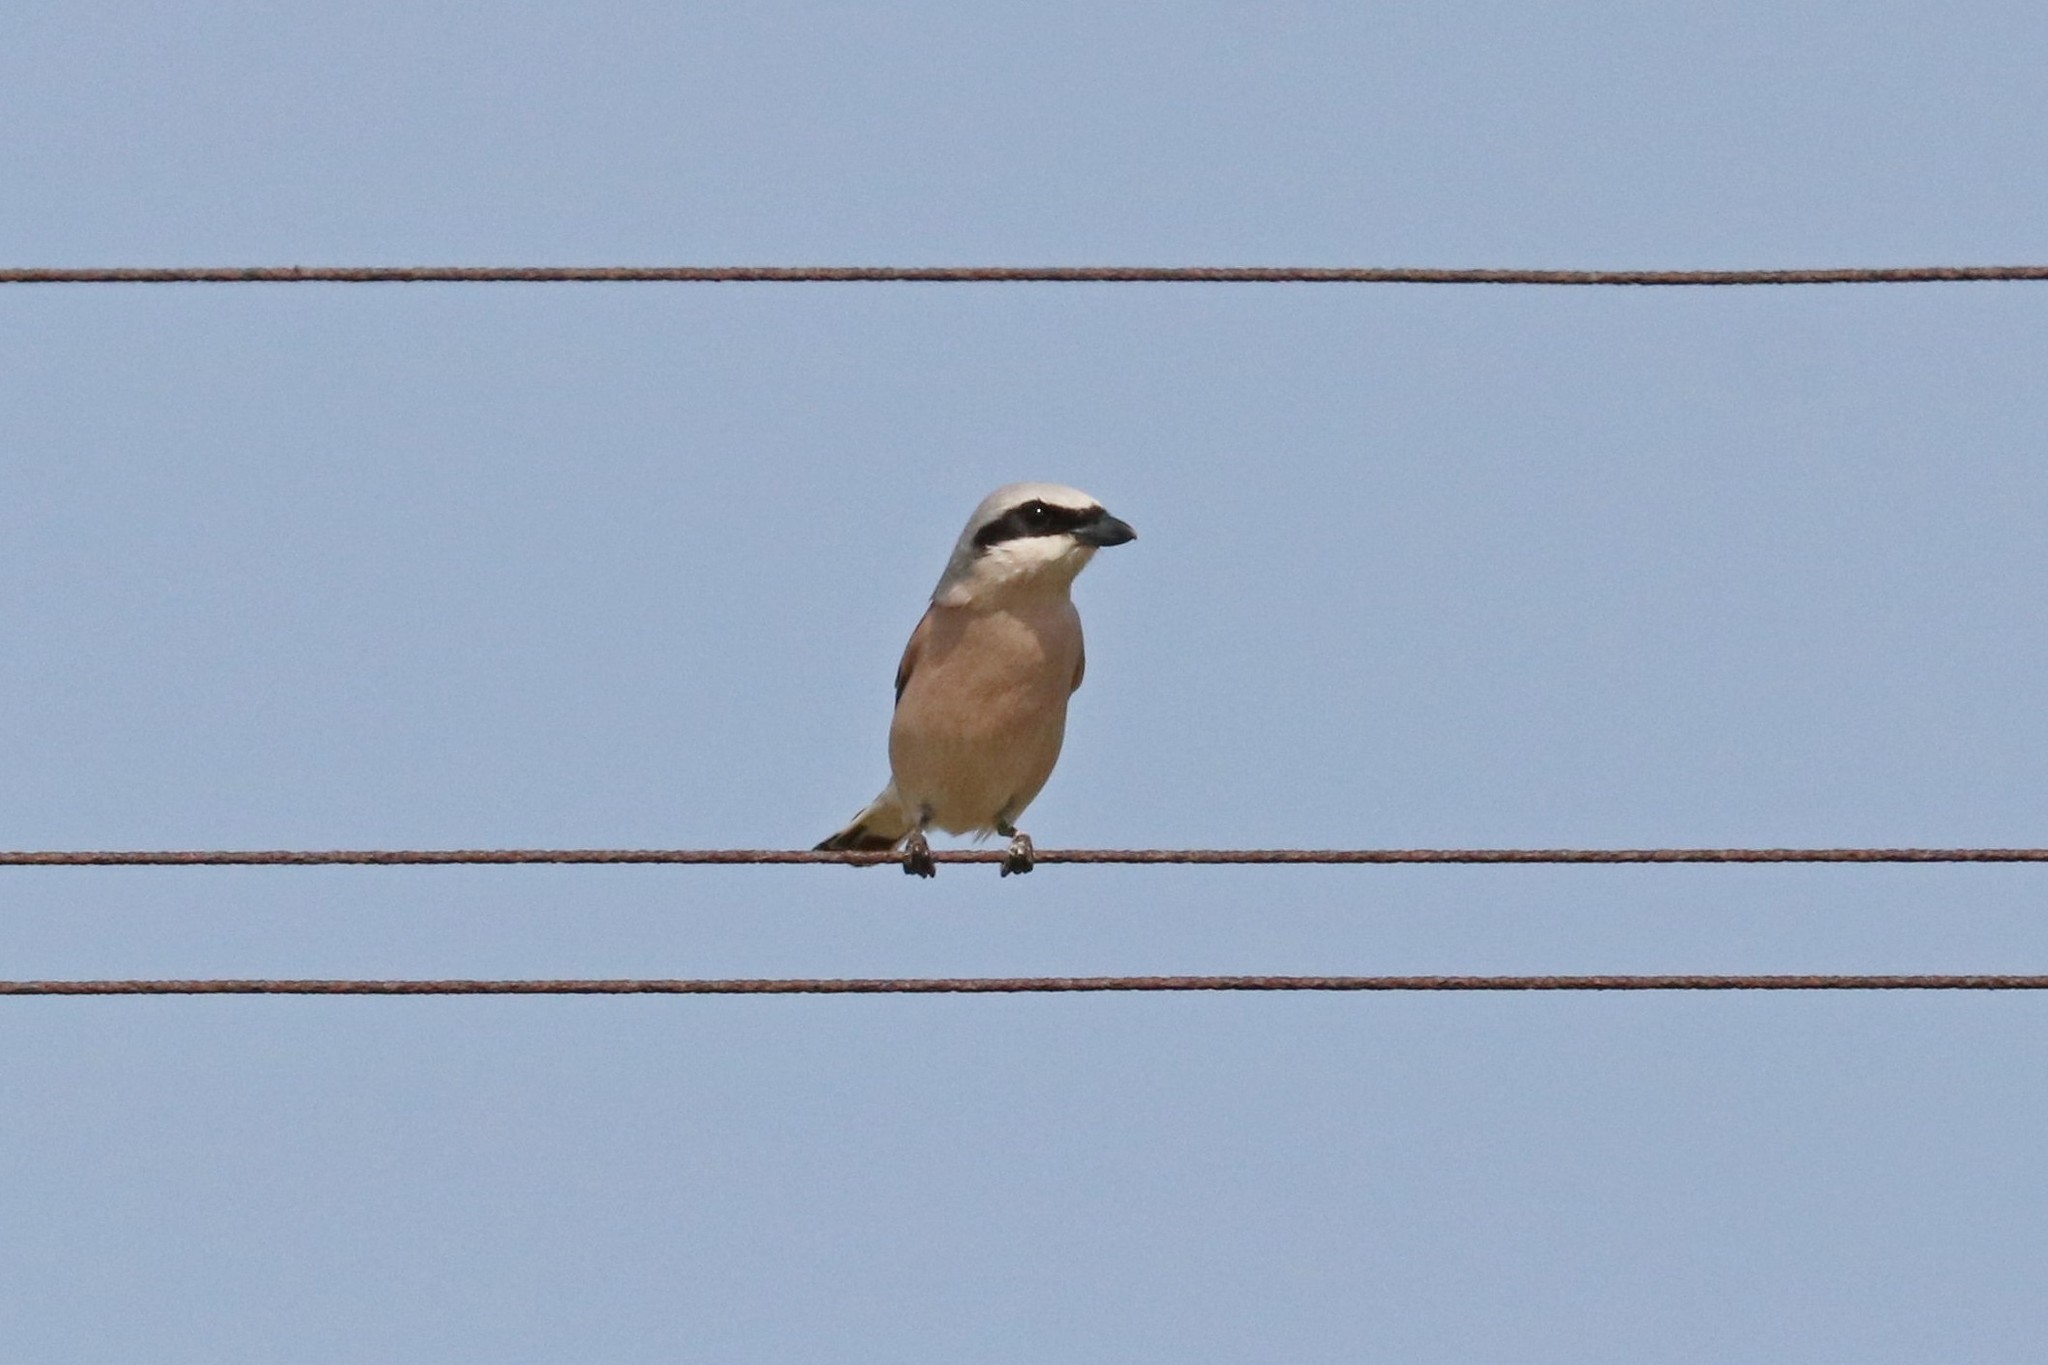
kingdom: Animalia
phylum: Chordata
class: Aves
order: Passeriformes
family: Laniidae
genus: Lanius
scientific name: Lanius collurio
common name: Red-backed shrike
